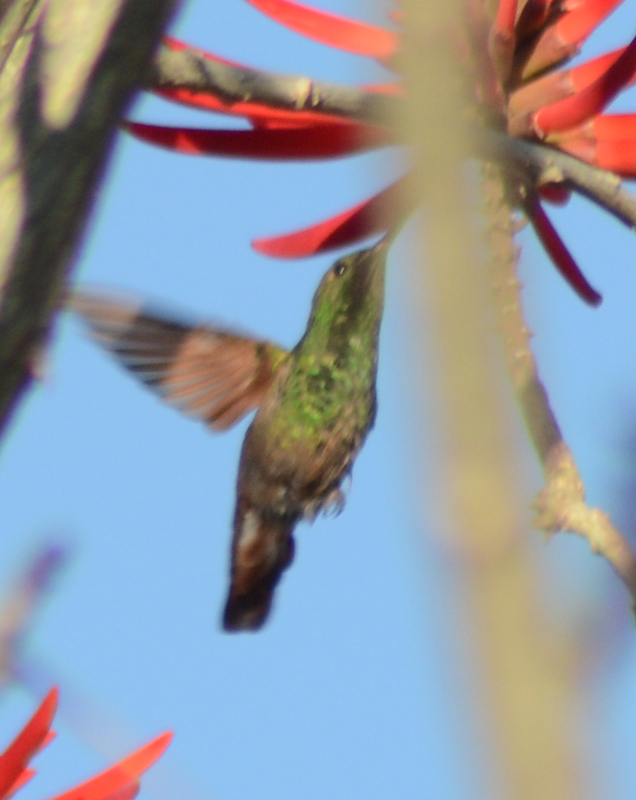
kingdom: Animalia
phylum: Chordata
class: Aves
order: Apodiformes
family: Trochilidae
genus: Saucerottia
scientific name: Saucerottia beryllina
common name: Berylline hummingbird
